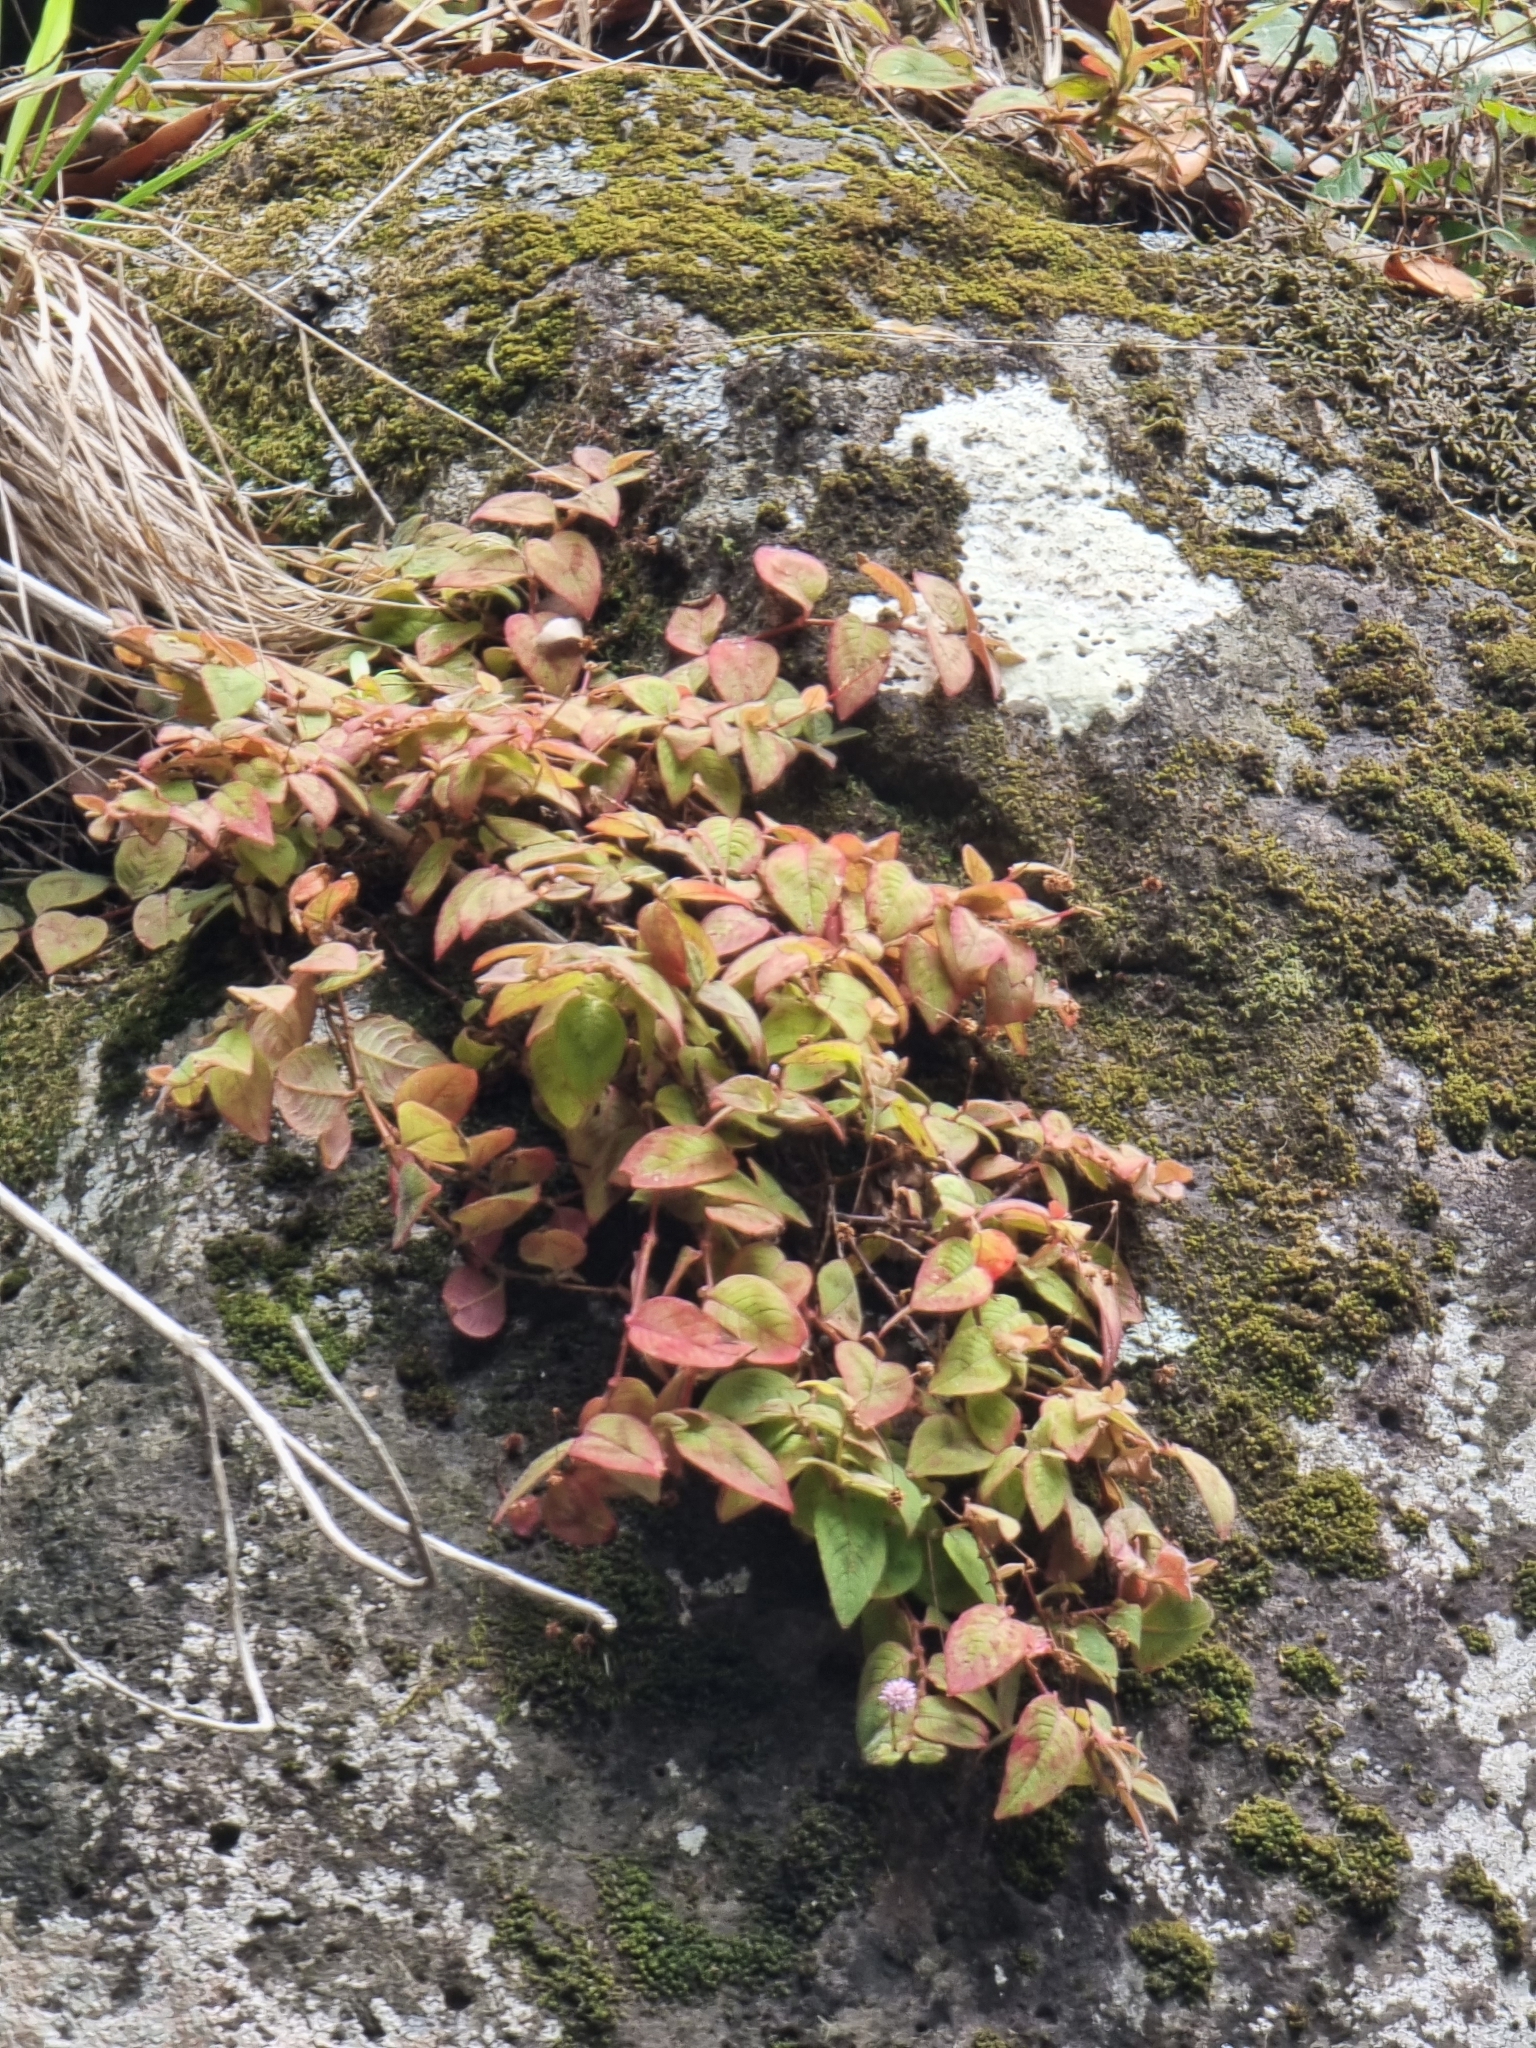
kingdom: Plantae
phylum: Tracheophyta
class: Magnoliopsida
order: Caryophyllales
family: Polygonaceae
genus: Persicaria
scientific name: Persicaria capitata
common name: Pinkhead smartweed
